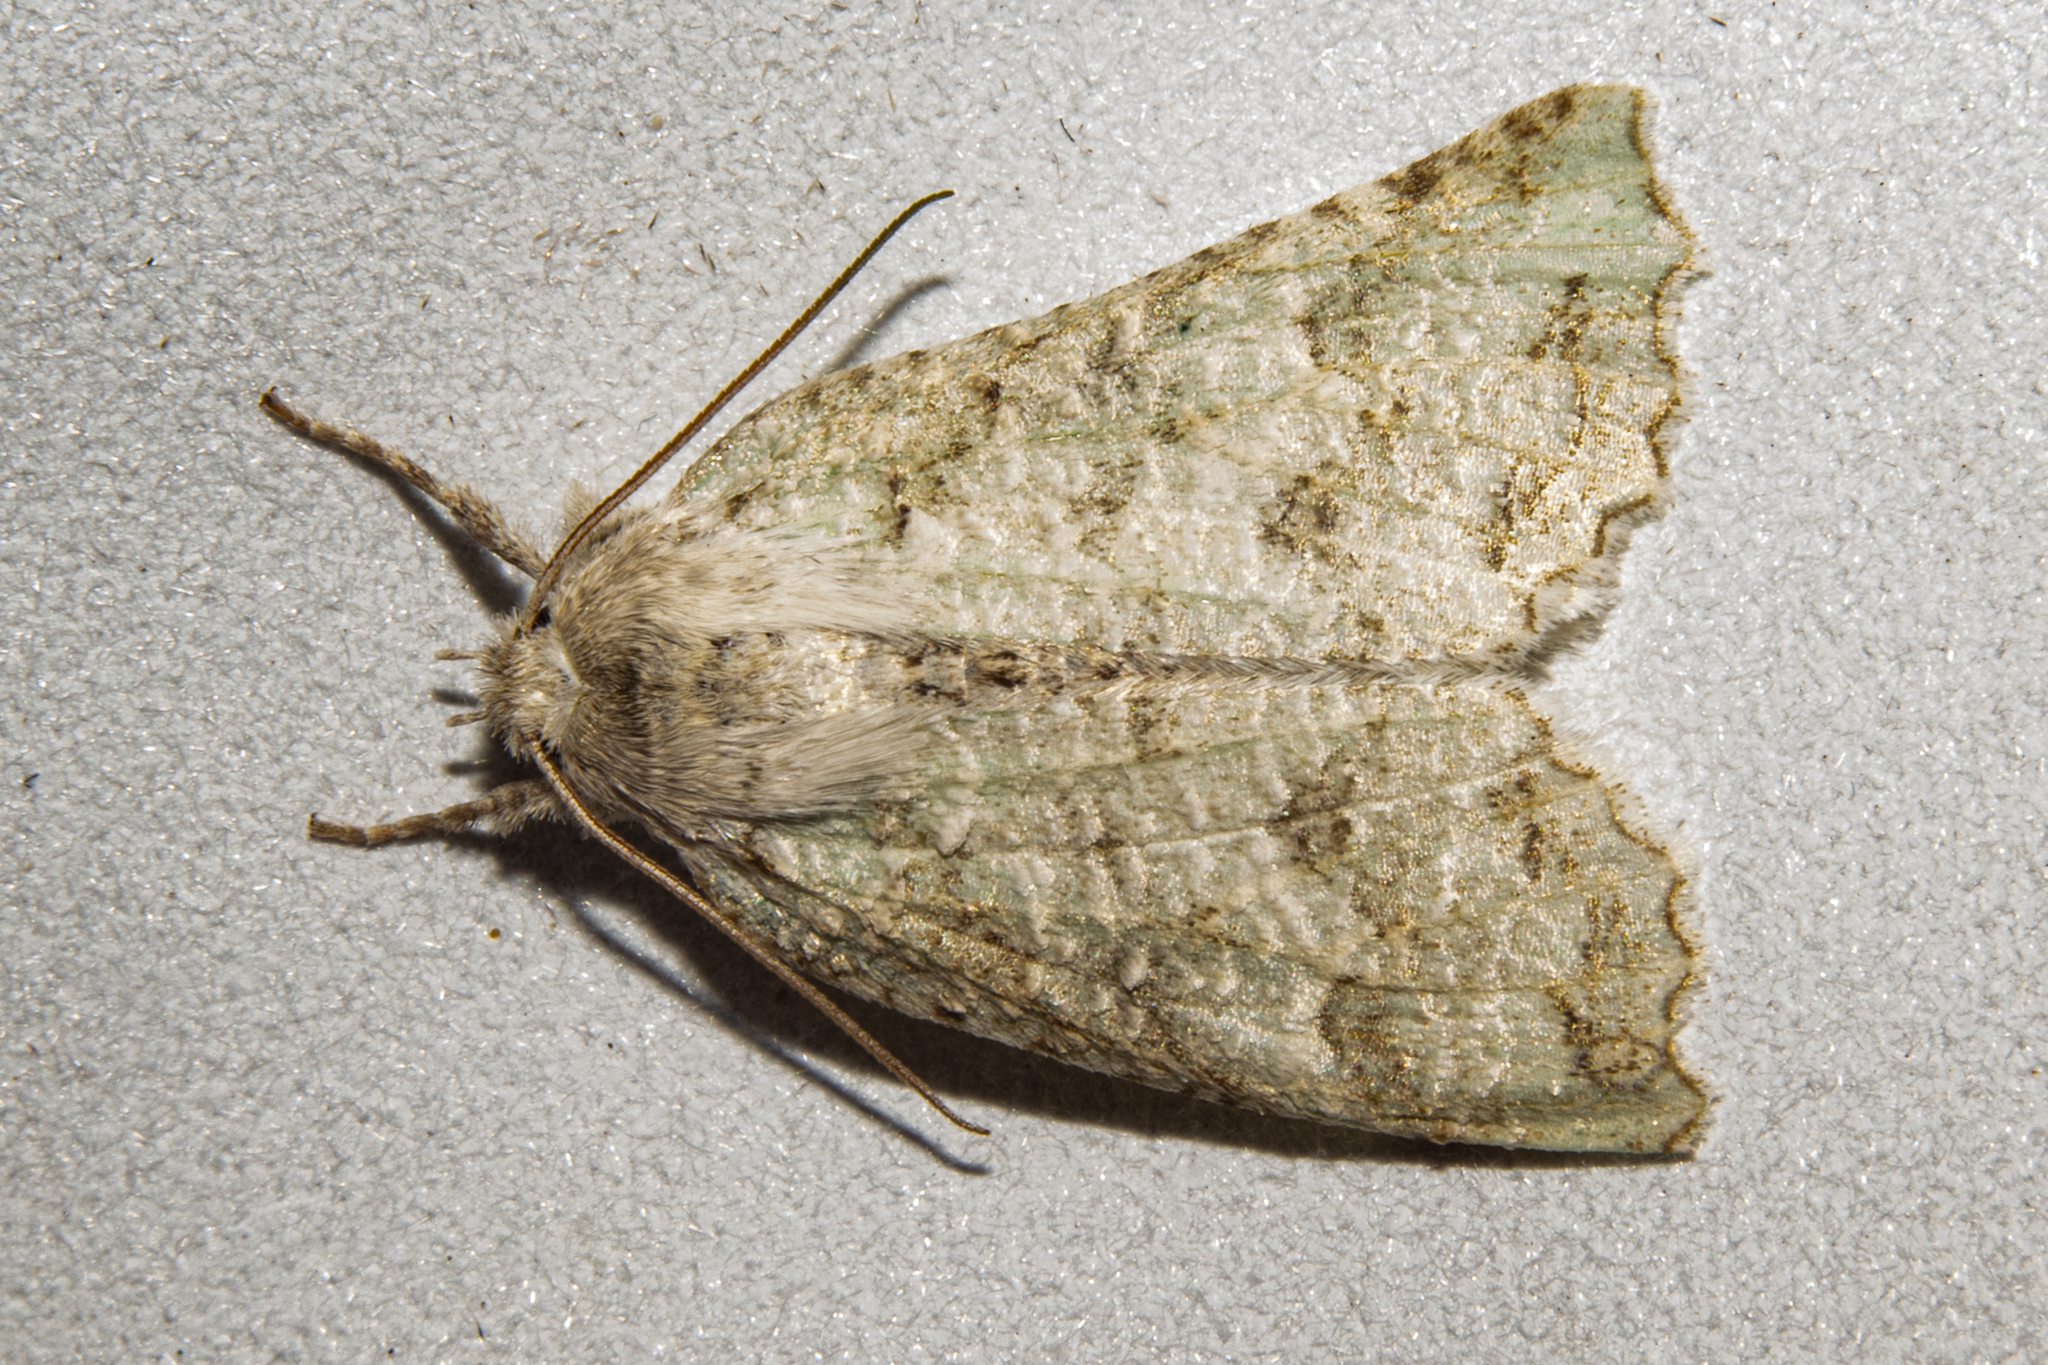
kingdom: Animalia
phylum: Arthropoda
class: Insecta
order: Lepidoptera
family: Geometridae
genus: Declana
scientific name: Declana floccosa
